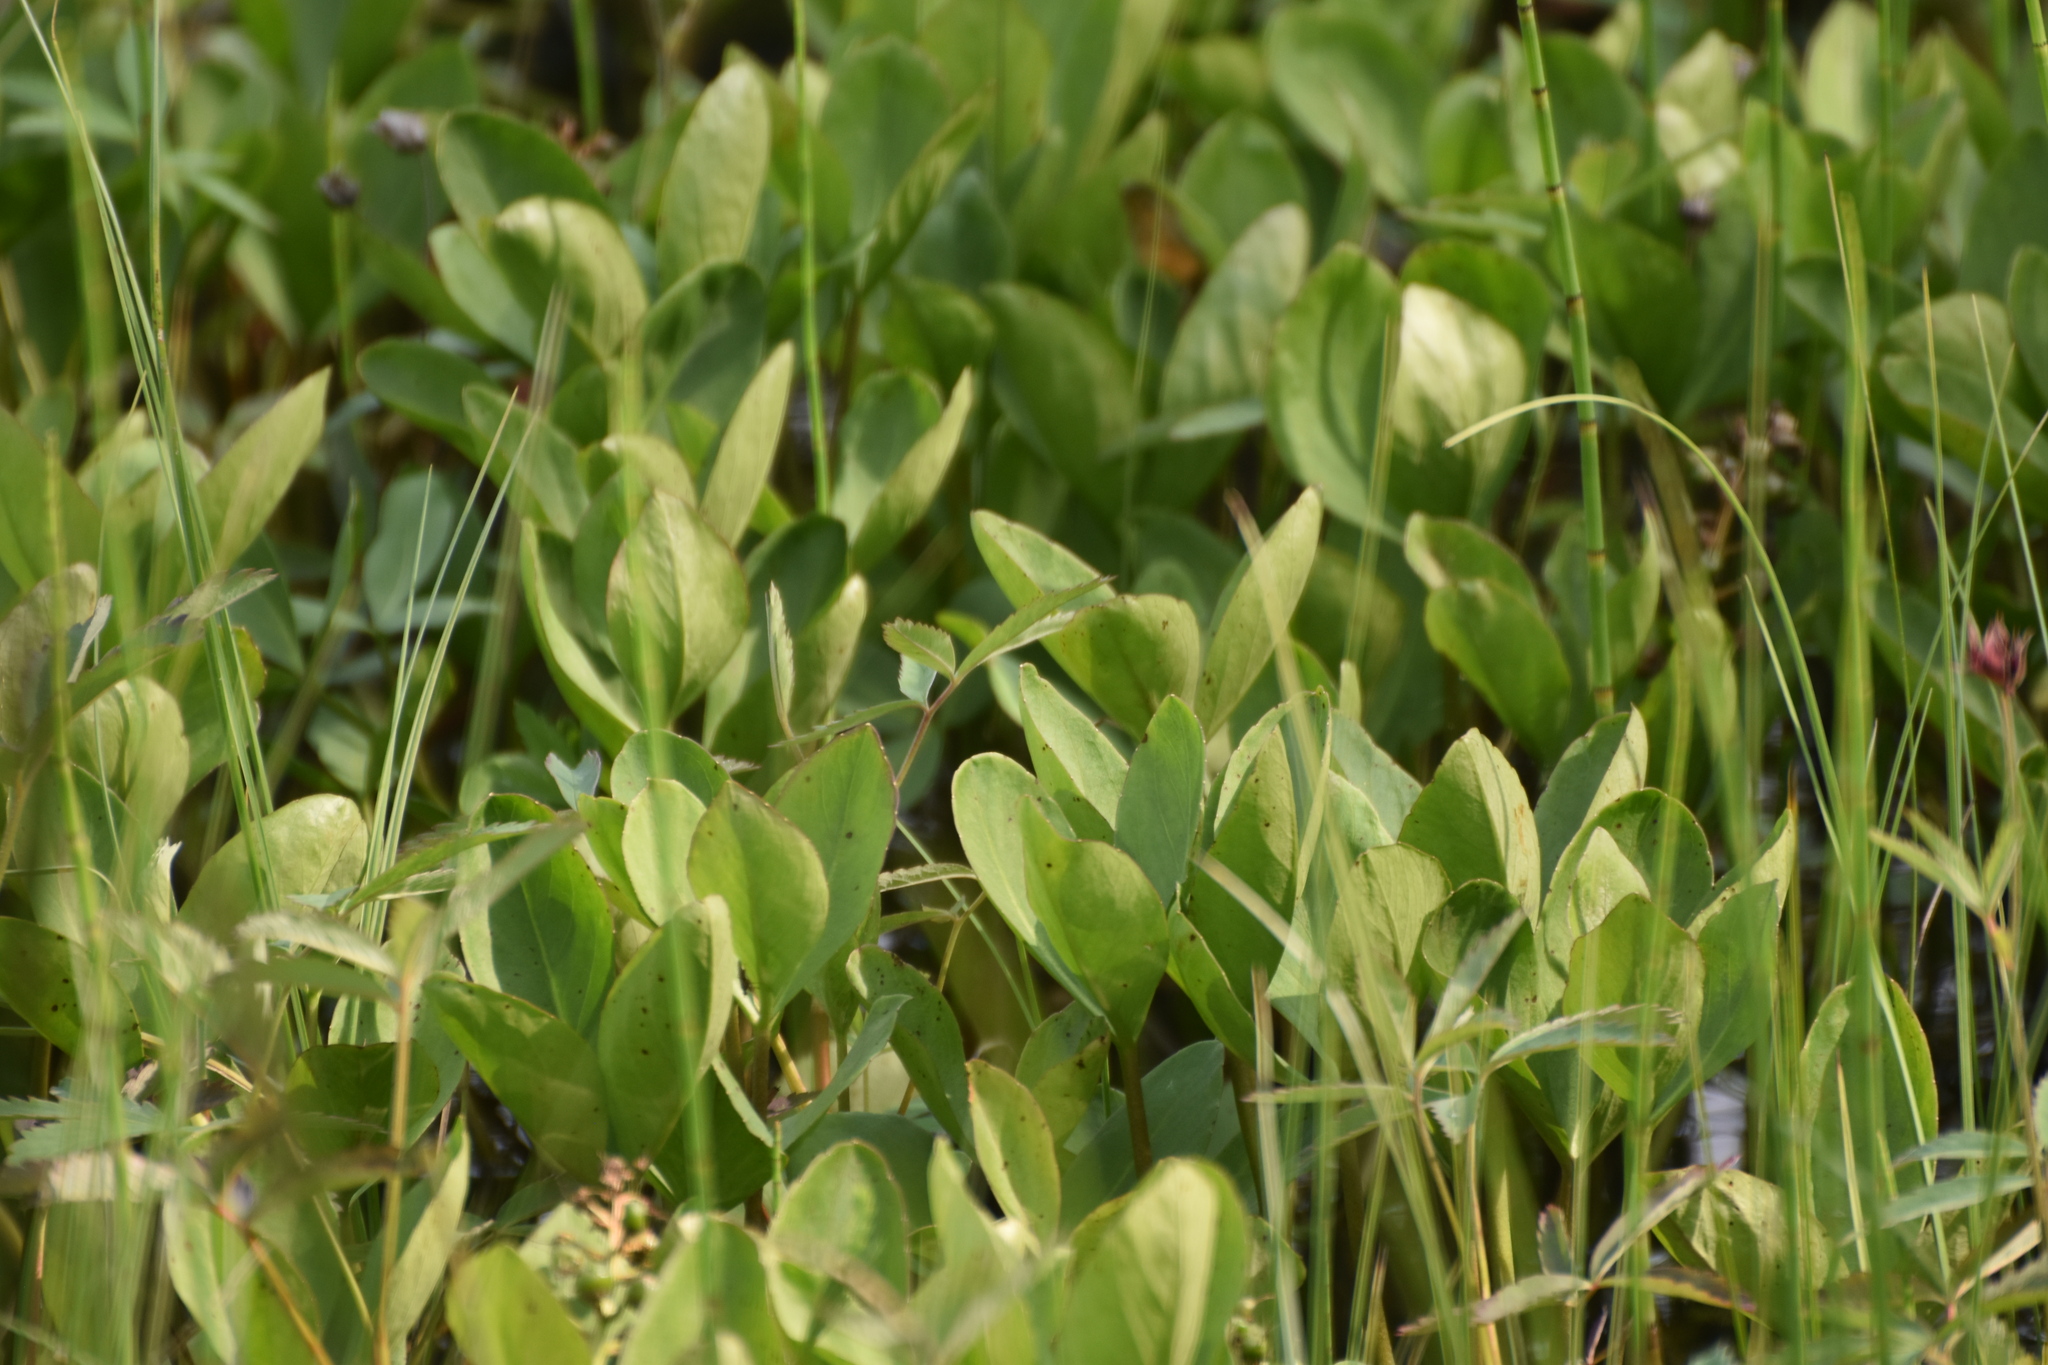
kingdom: Plantae
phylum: Tracheophyta
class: Magnoliopsida
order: Asterales
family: Menyanthaceae
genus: Menyanthes
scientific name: Menyanthes trifoliata
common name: Bogbean
